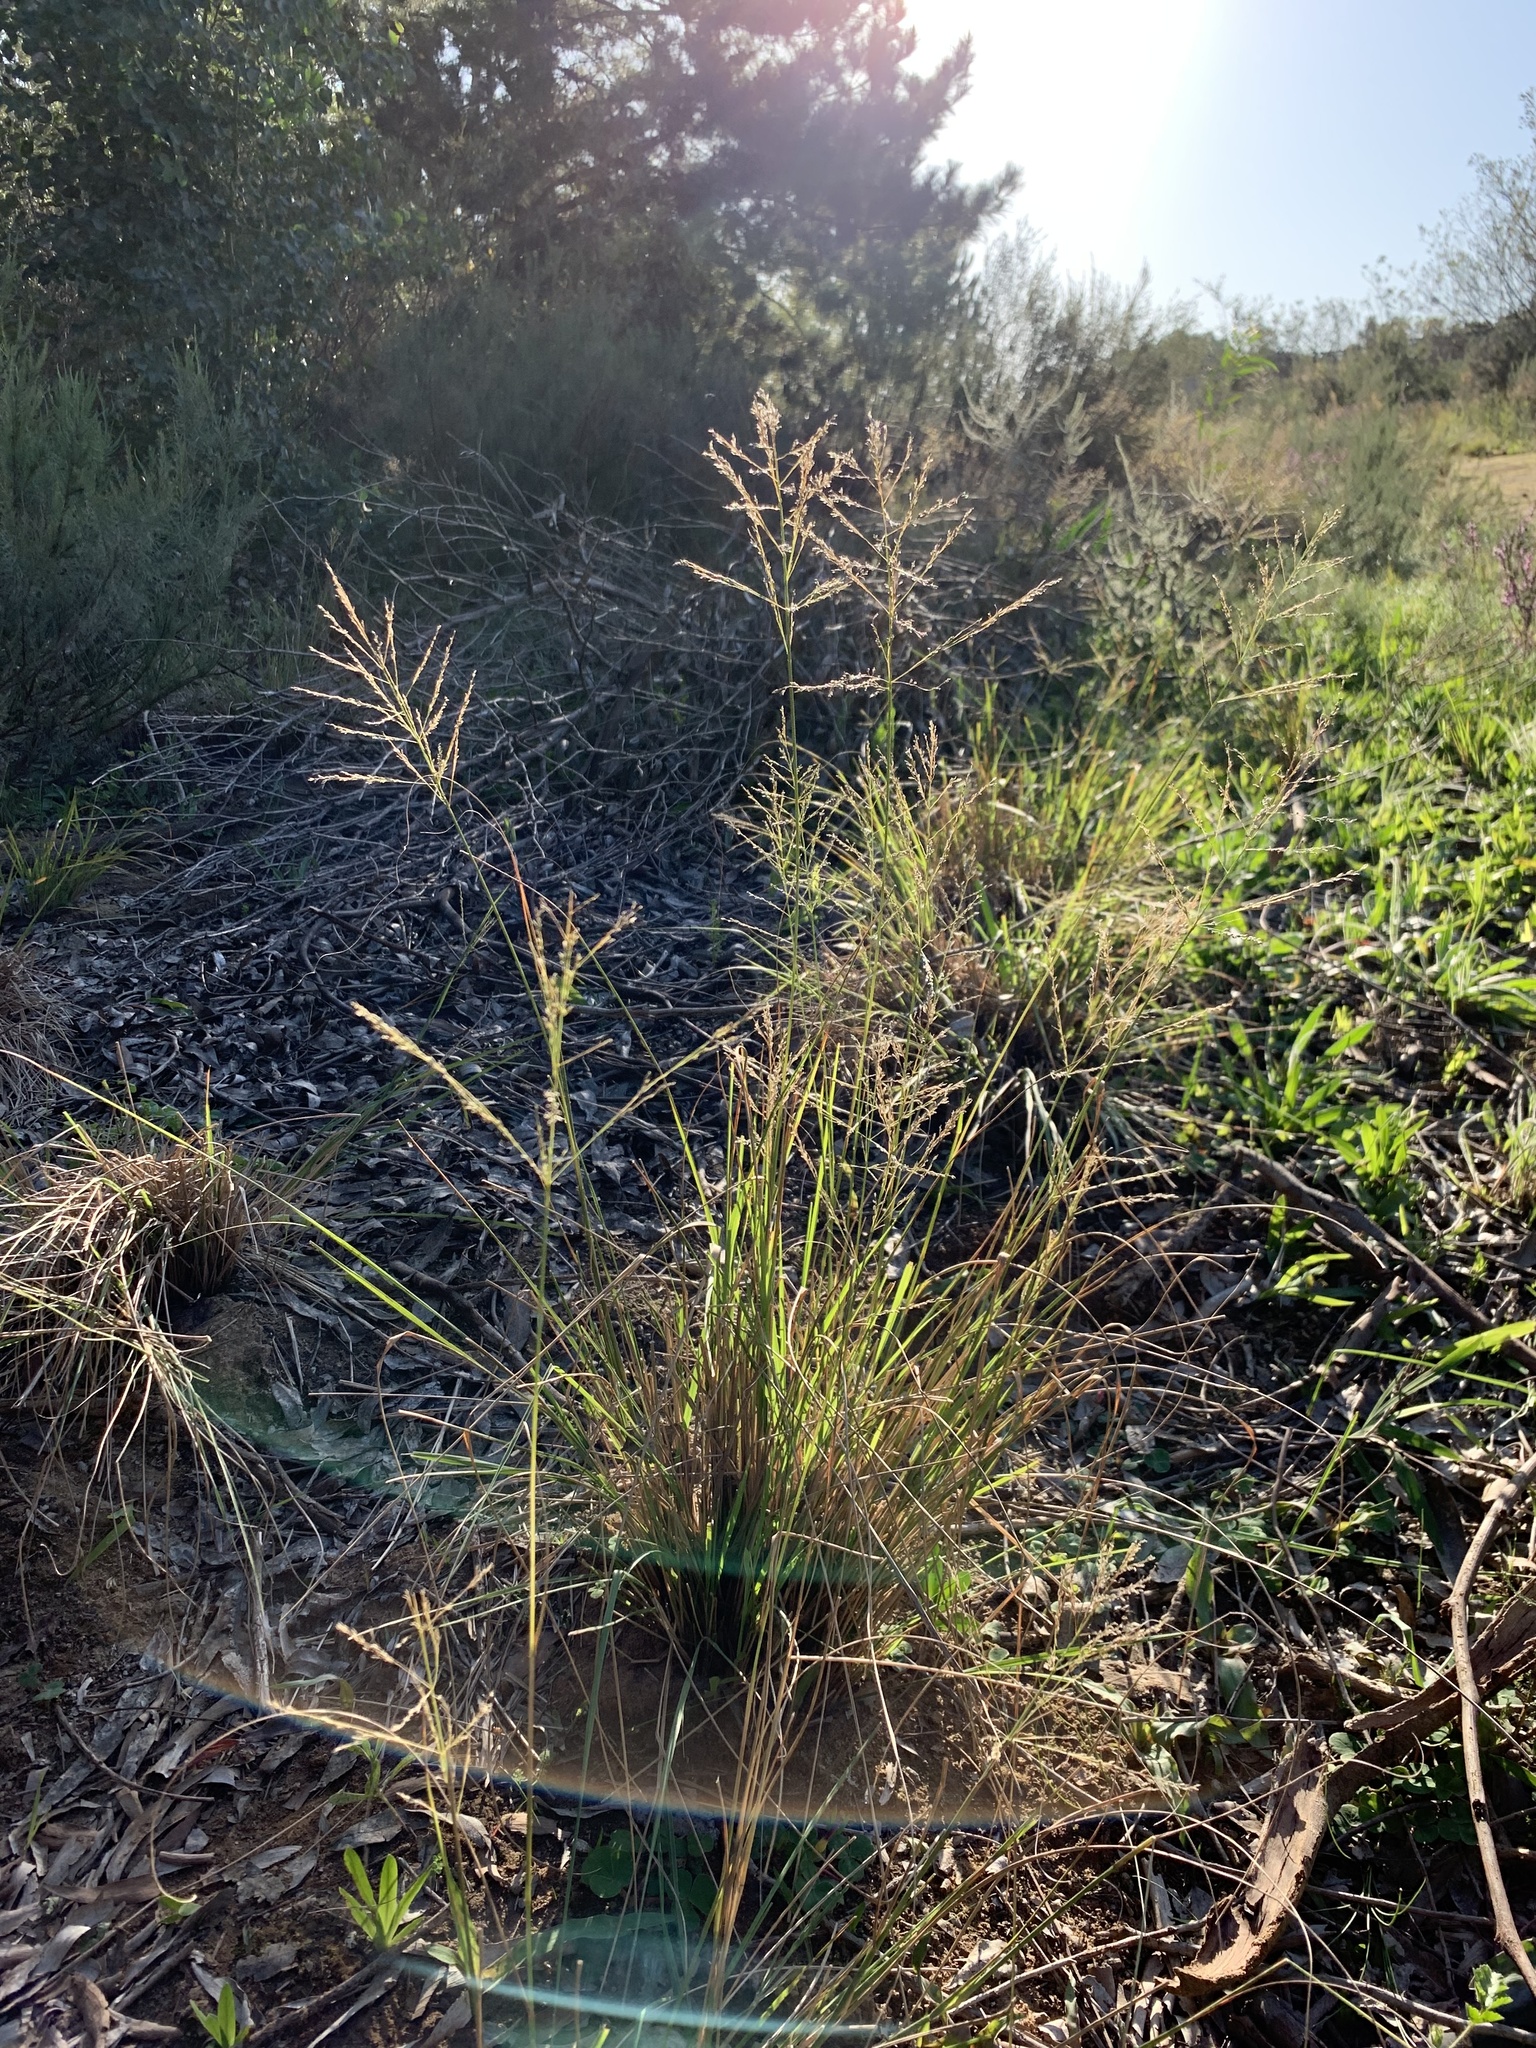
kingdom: Plantae
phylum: Tracheophyta
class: Liliopsida
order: Poales
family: Poaceae
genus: Eragrostis
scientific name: Eragrostis curvula
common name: African love-grass
